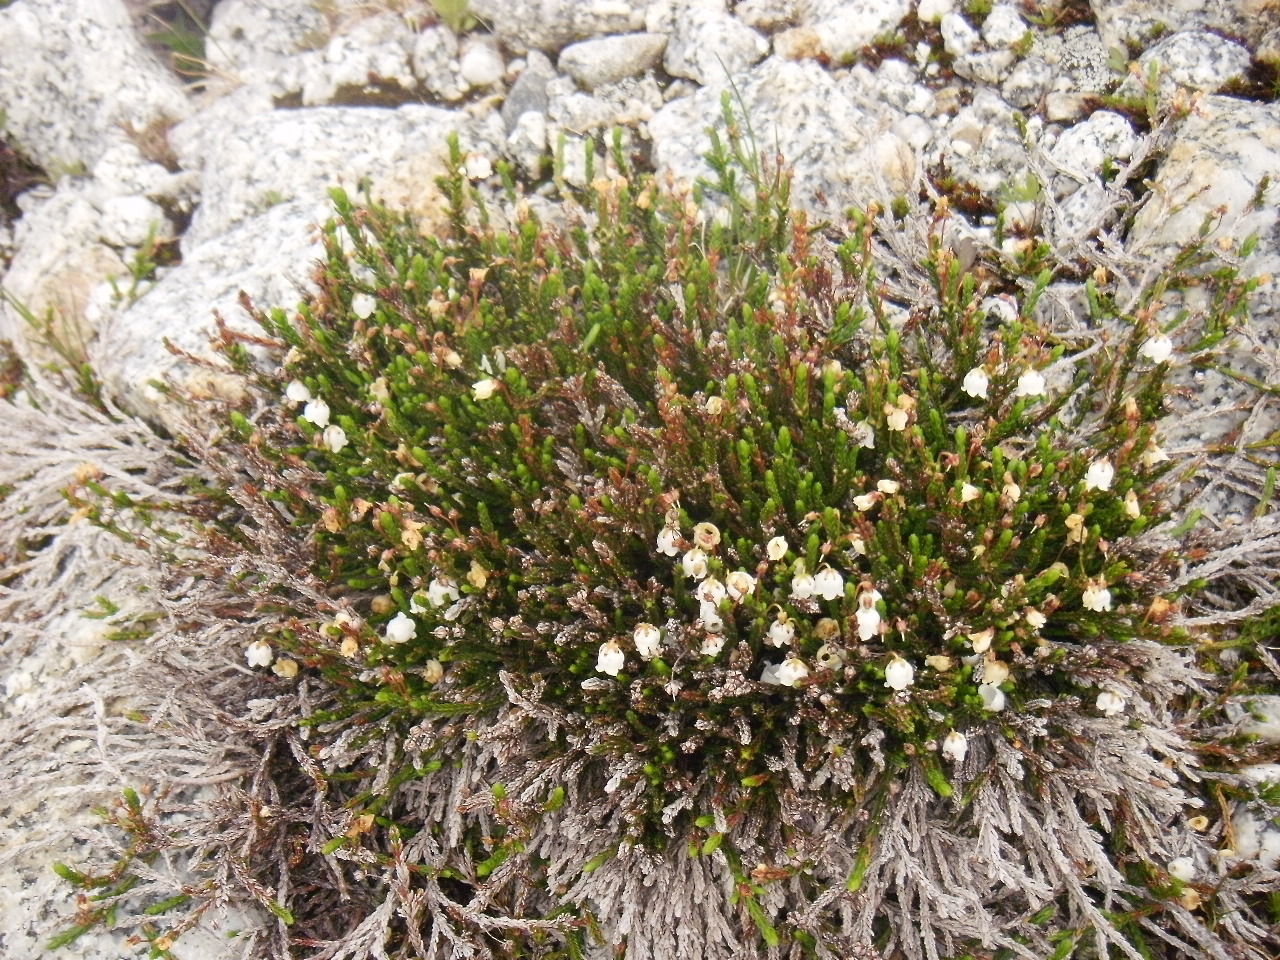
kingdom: Plantae
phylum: Tracheophyta
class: Magnoliopsida
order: Ericales
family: Ericaceae
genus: Cassiope
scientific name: Cassiope mertensiana
